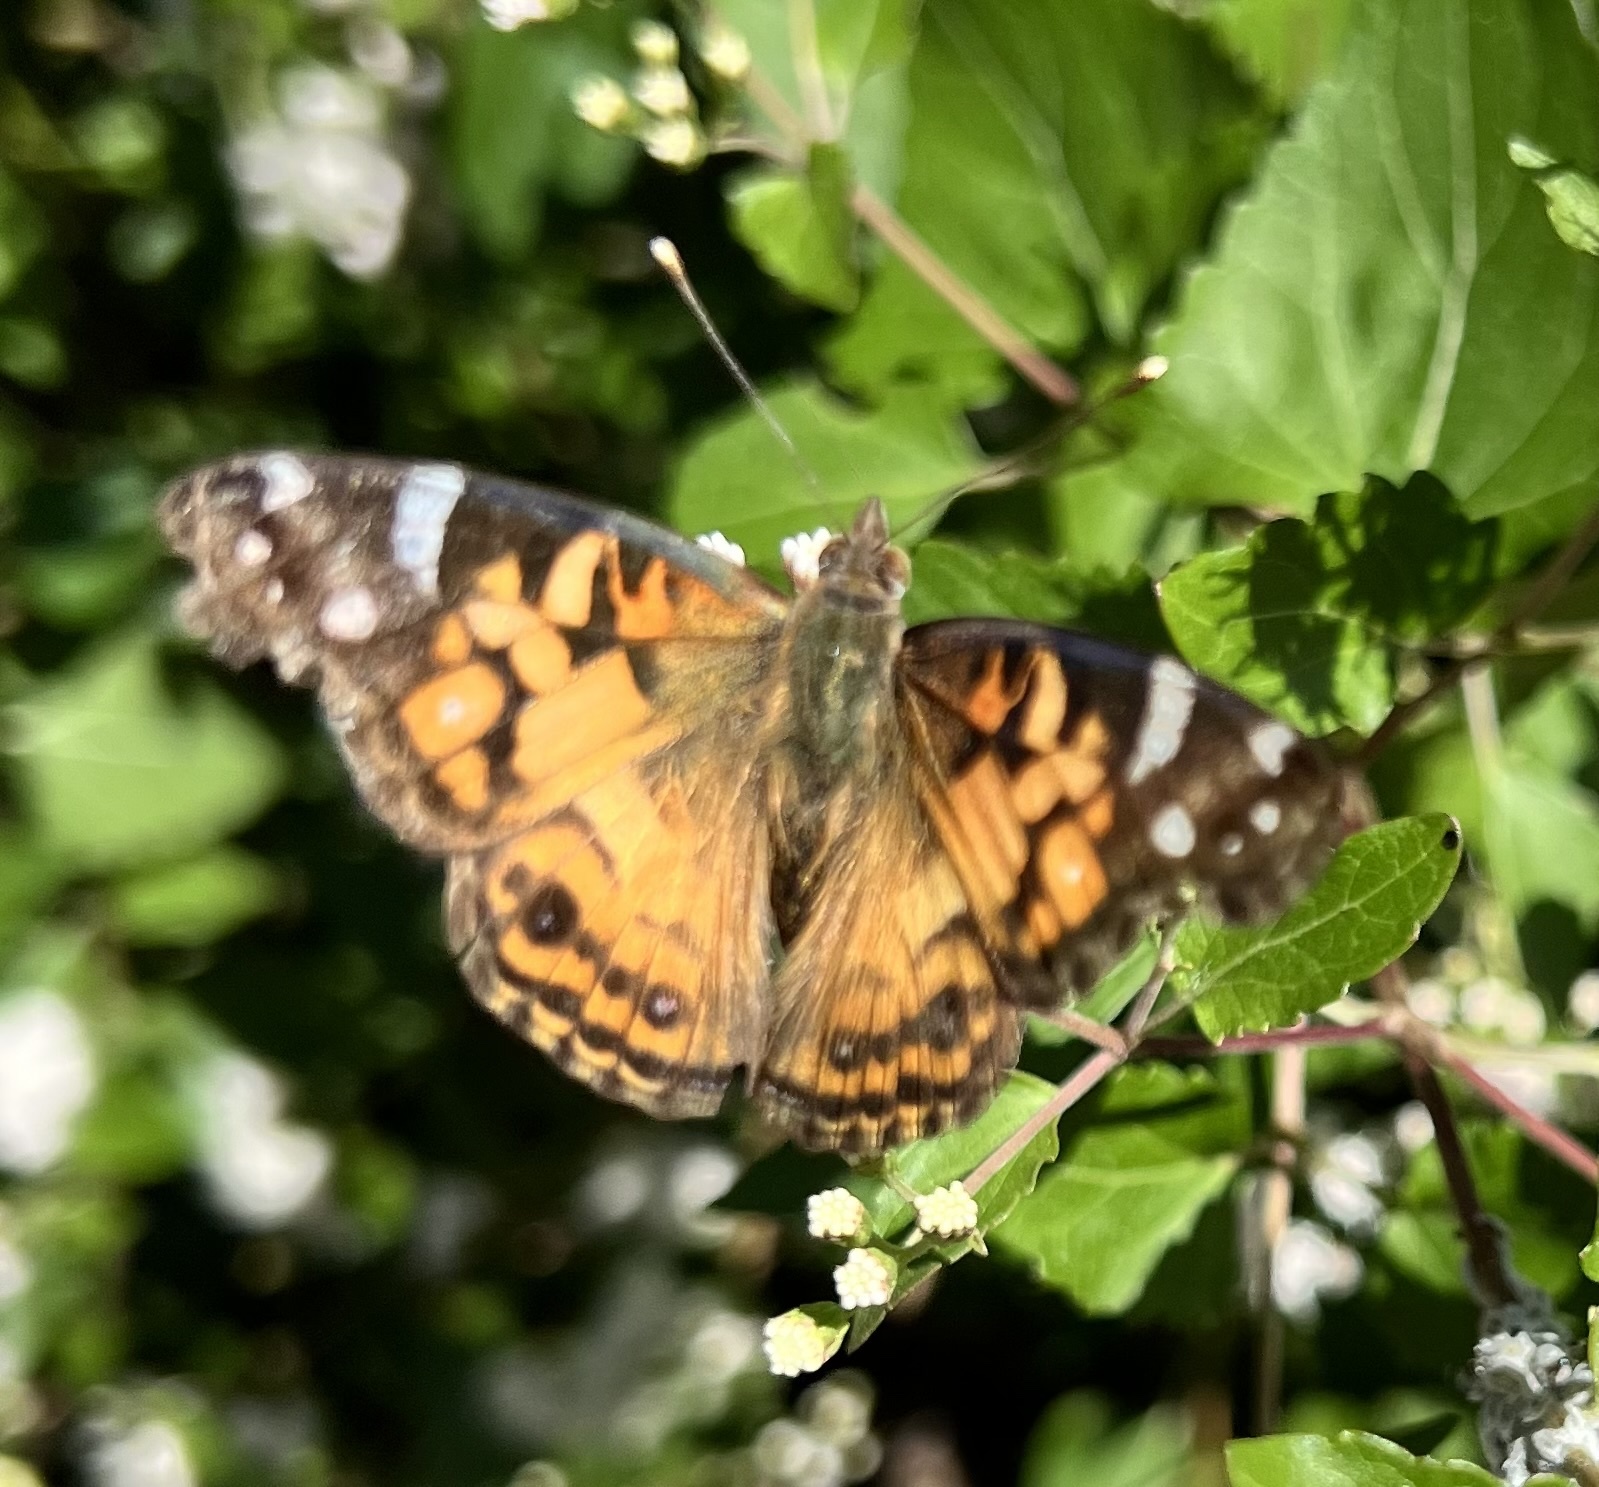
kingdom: Animalia
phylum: Arthropoda
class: Insecta
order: Lepidoptera
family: Nymphalidae
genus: Vanessa
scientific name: Vanessa virginiensis
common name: American lady
